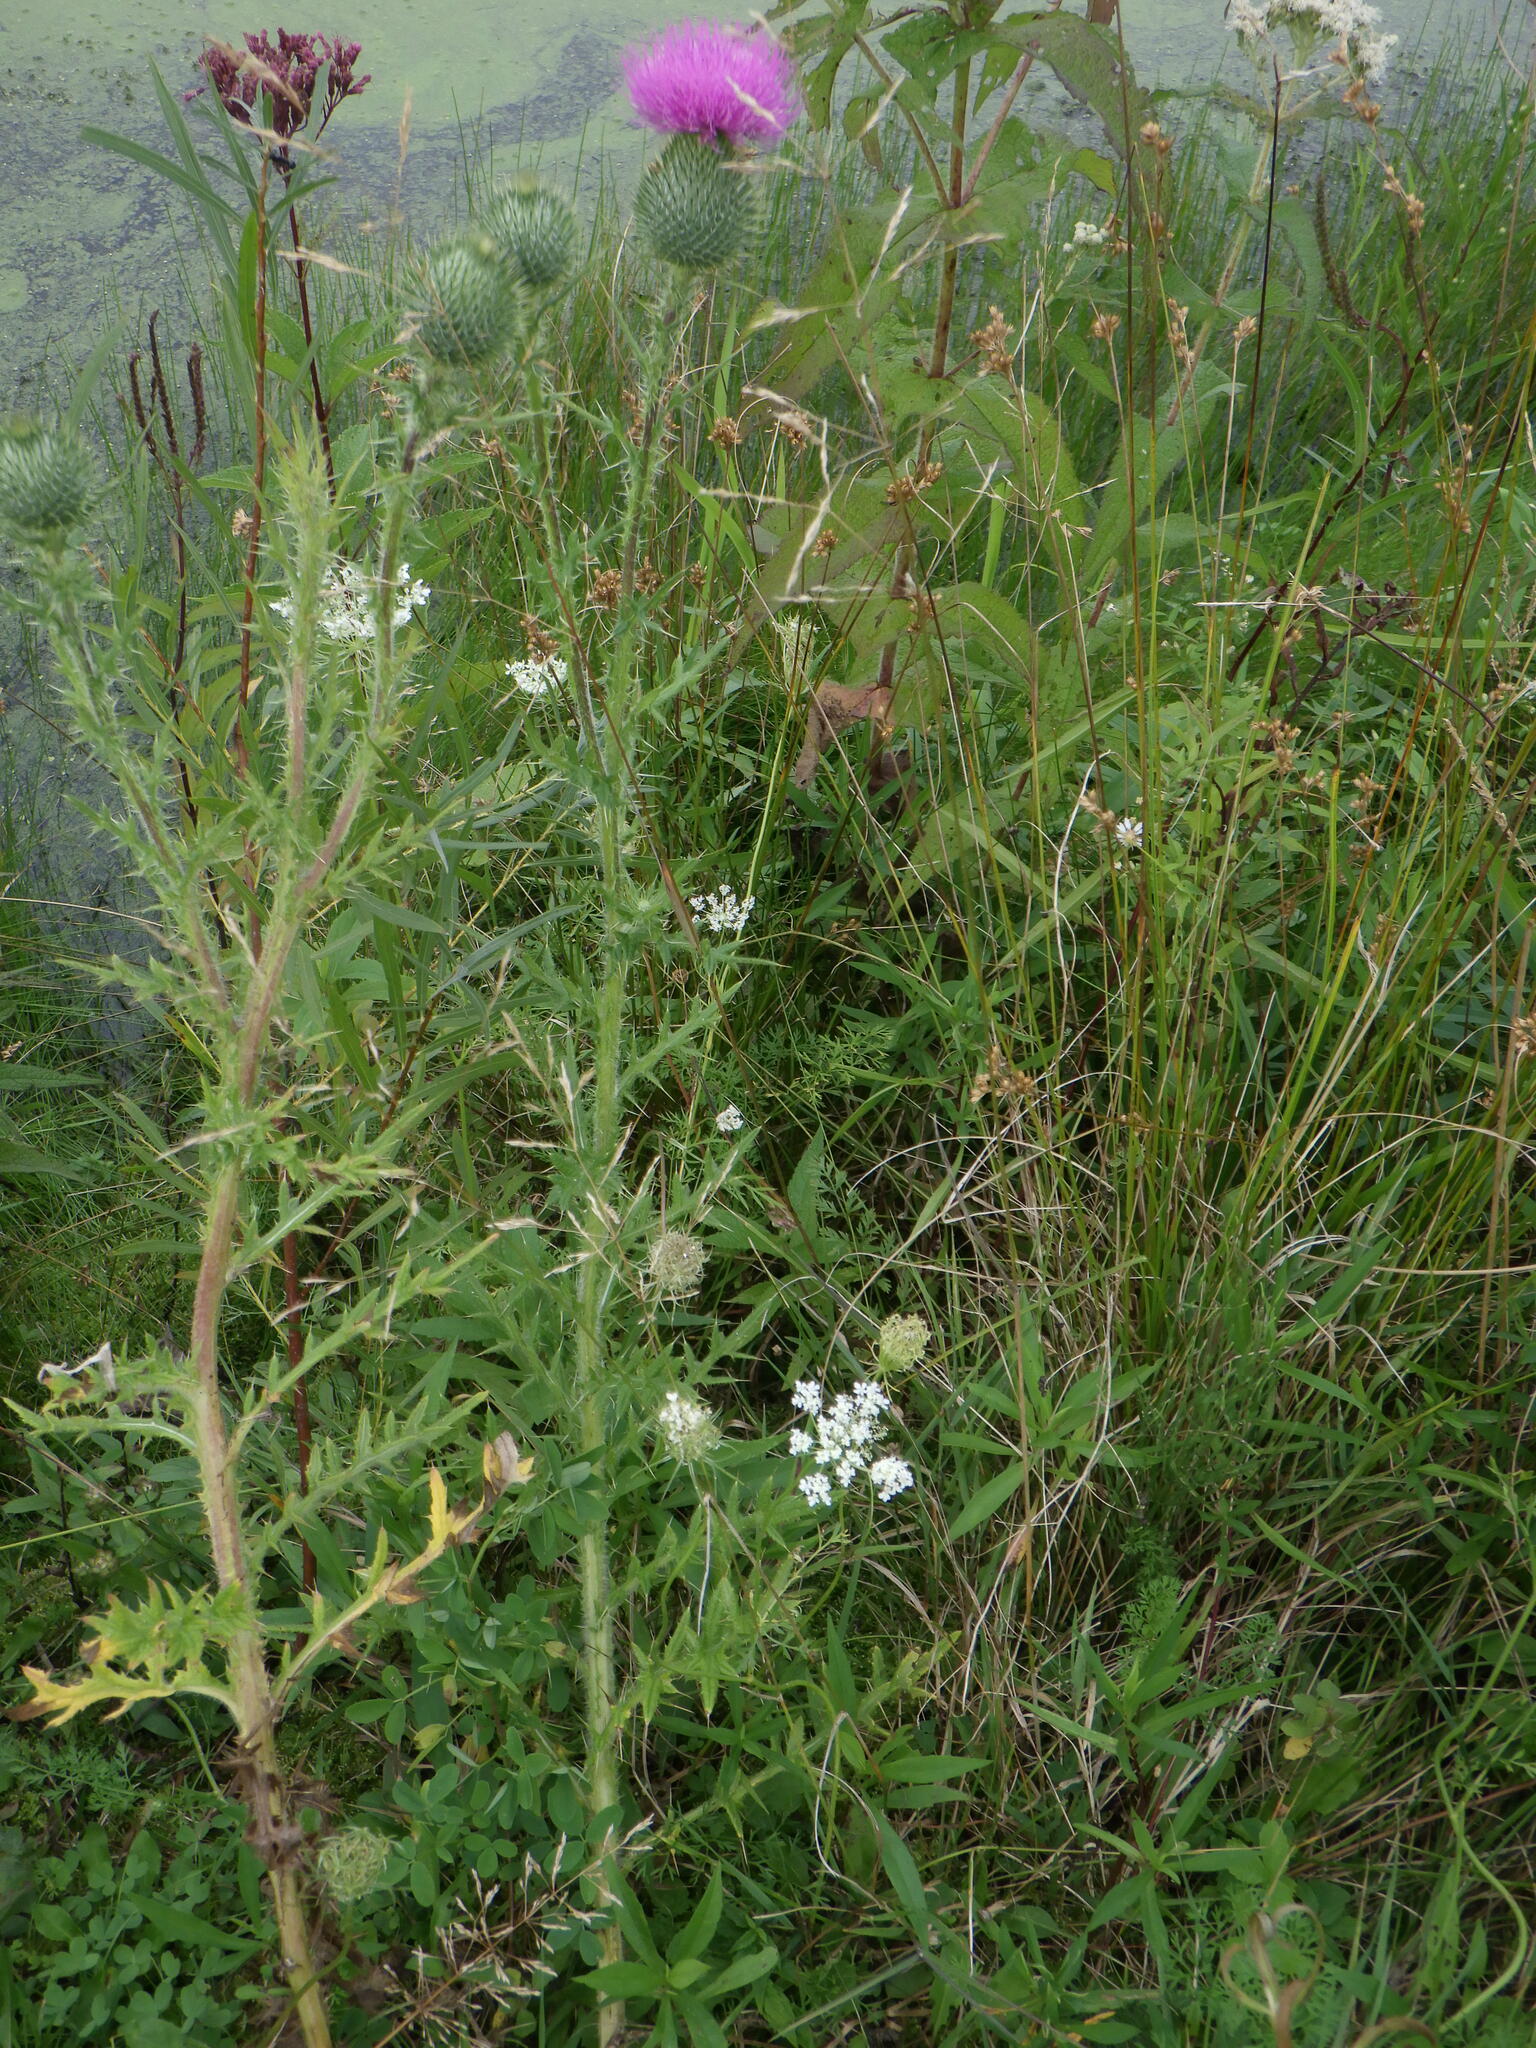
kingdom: Plantae
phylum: Tracheophyta
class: Magnoliopsida
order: Asterales
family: Asteraceae
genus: Cirsium
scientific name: Cirsium vulgare
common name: Bull thistle
